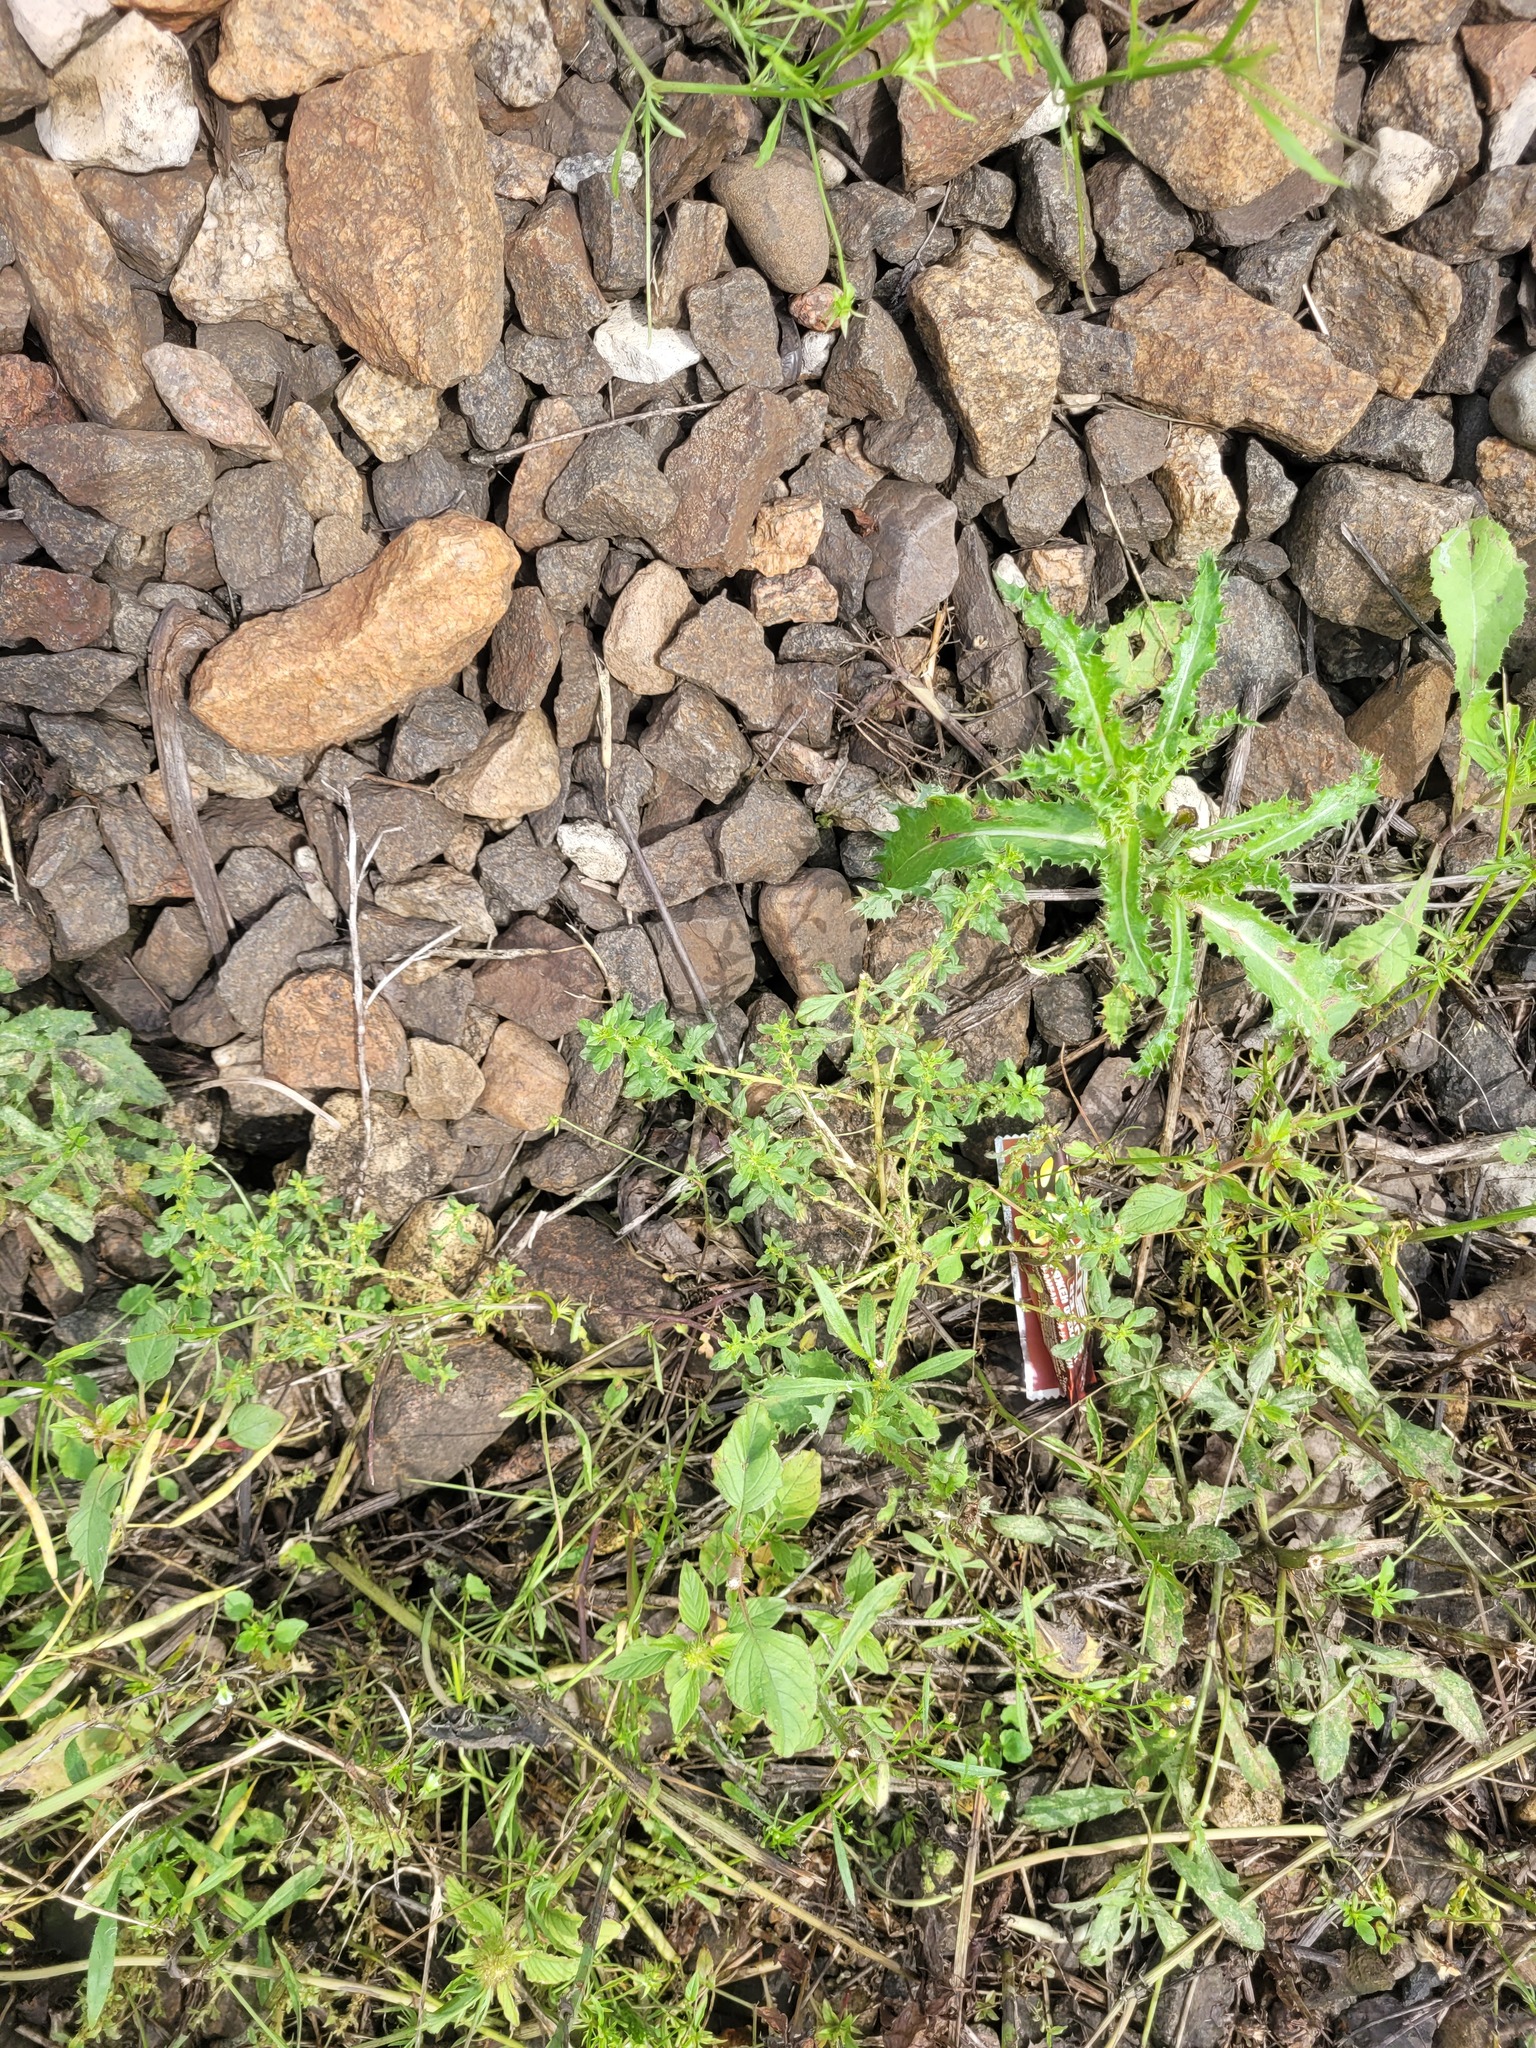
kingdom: Plantae
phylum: Tracheophyta
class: Magnoliopsida
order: Caryophyllales
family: Amaranthaceae
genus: Amaranthus
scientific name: Amaranthus albus
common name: White pigweed
